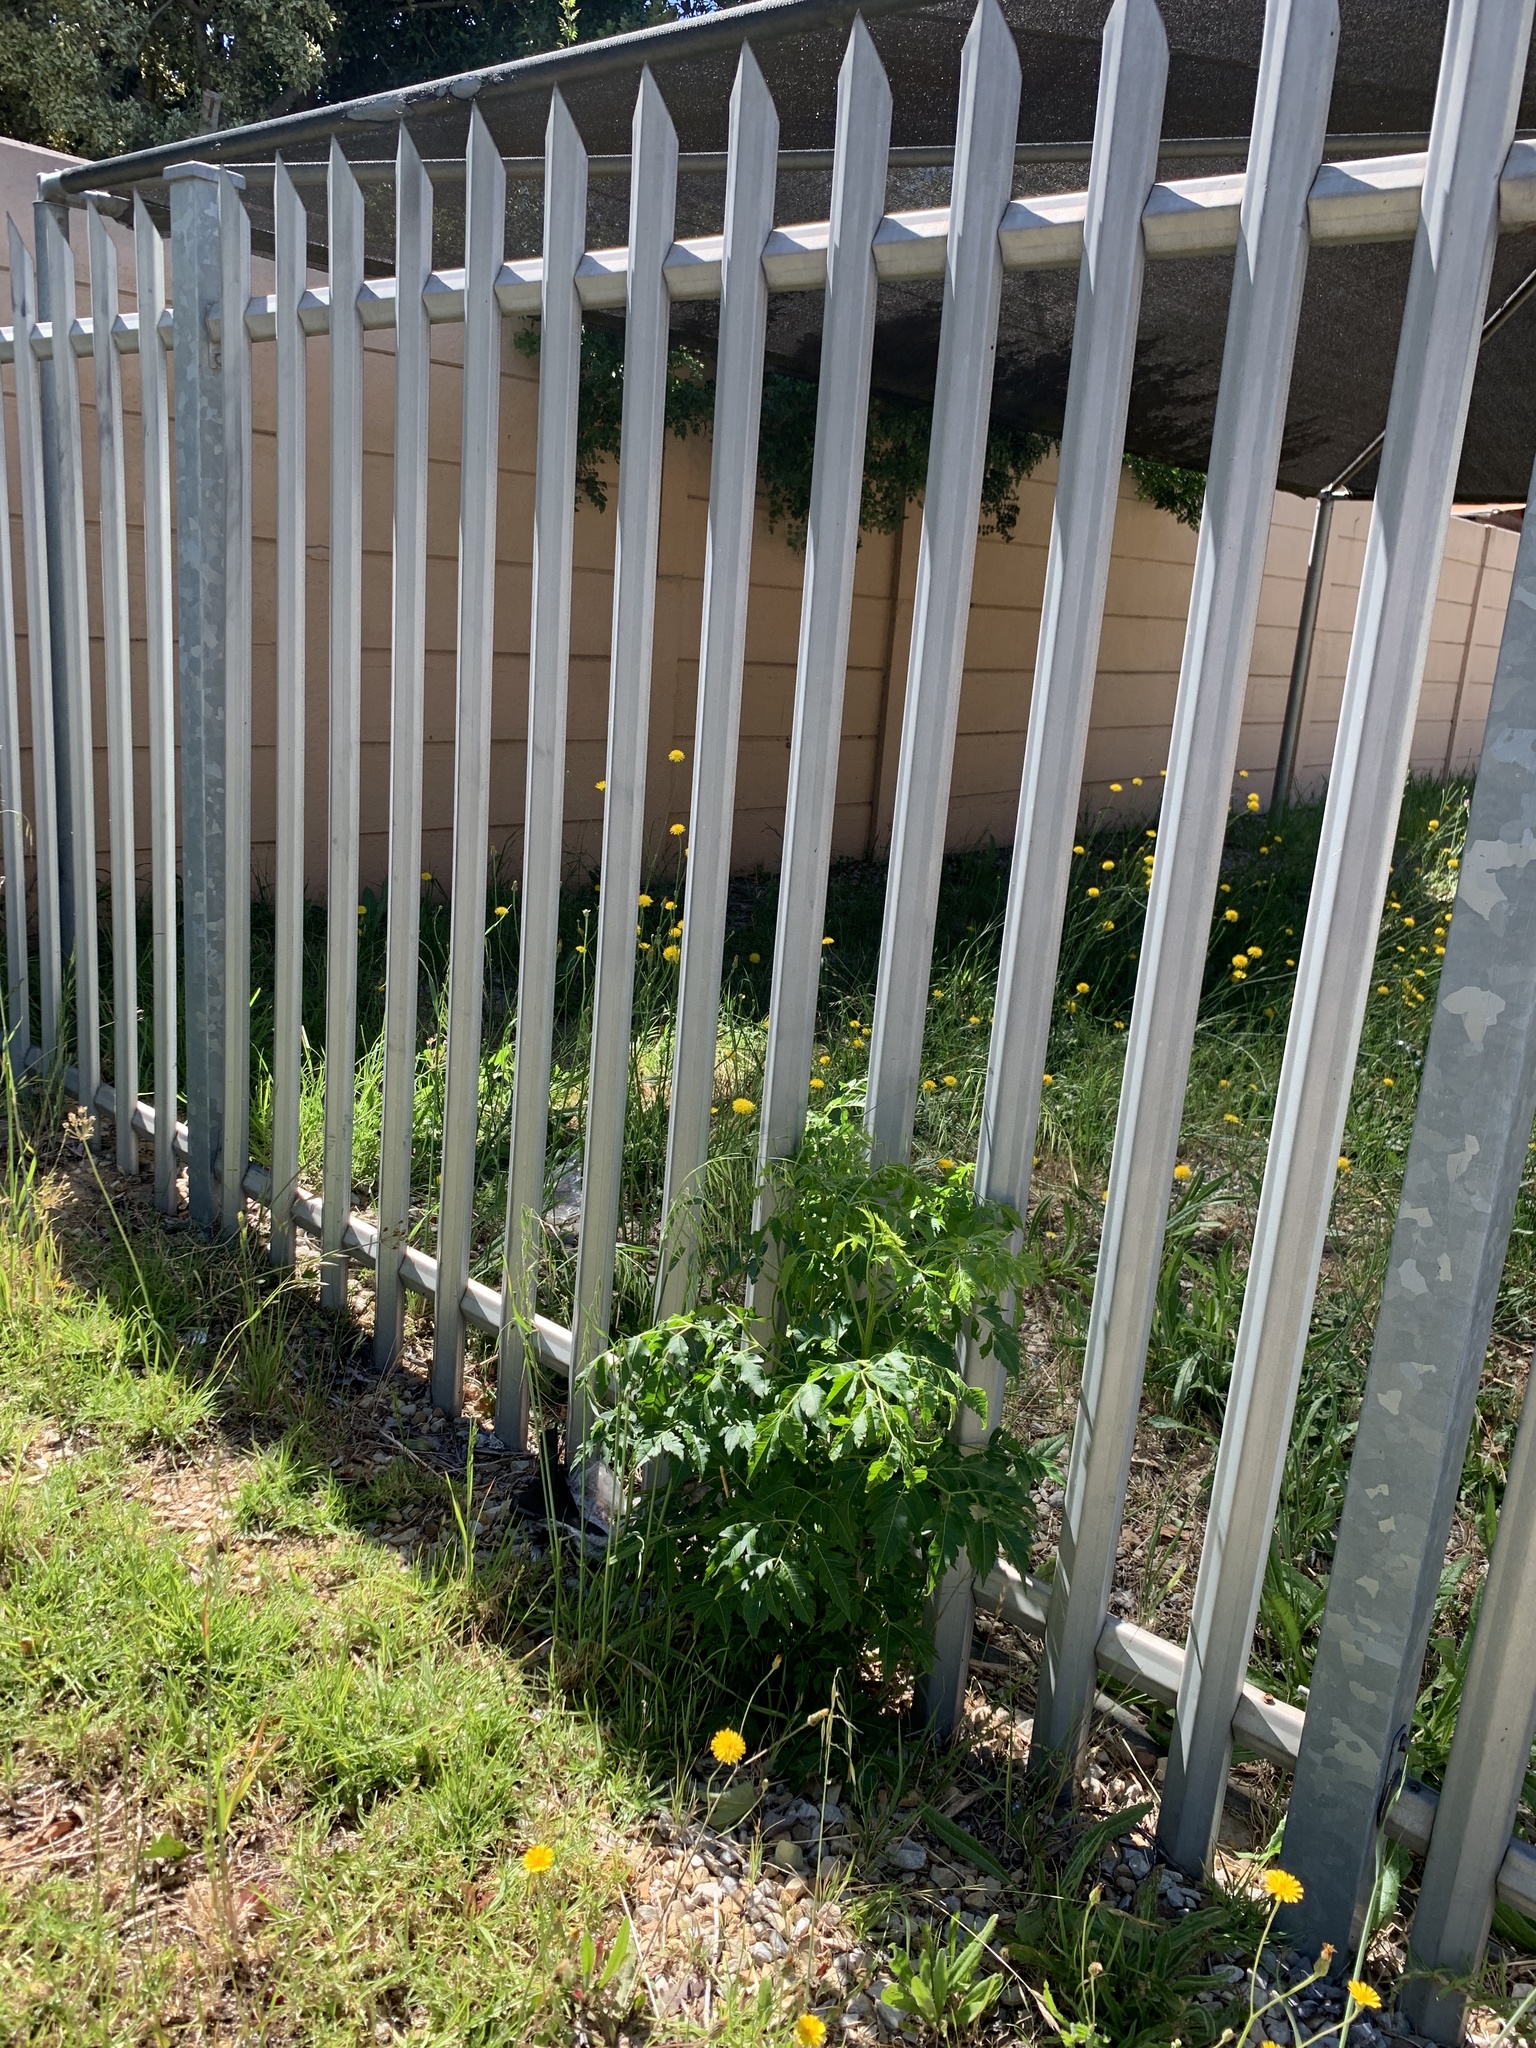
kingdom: Plantae
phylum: Tracheophyta
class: Magnoliopsida
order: Sapindales
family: Meliaceae
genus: Melia
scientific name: Melia azedarach
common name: Chinaberrytree
